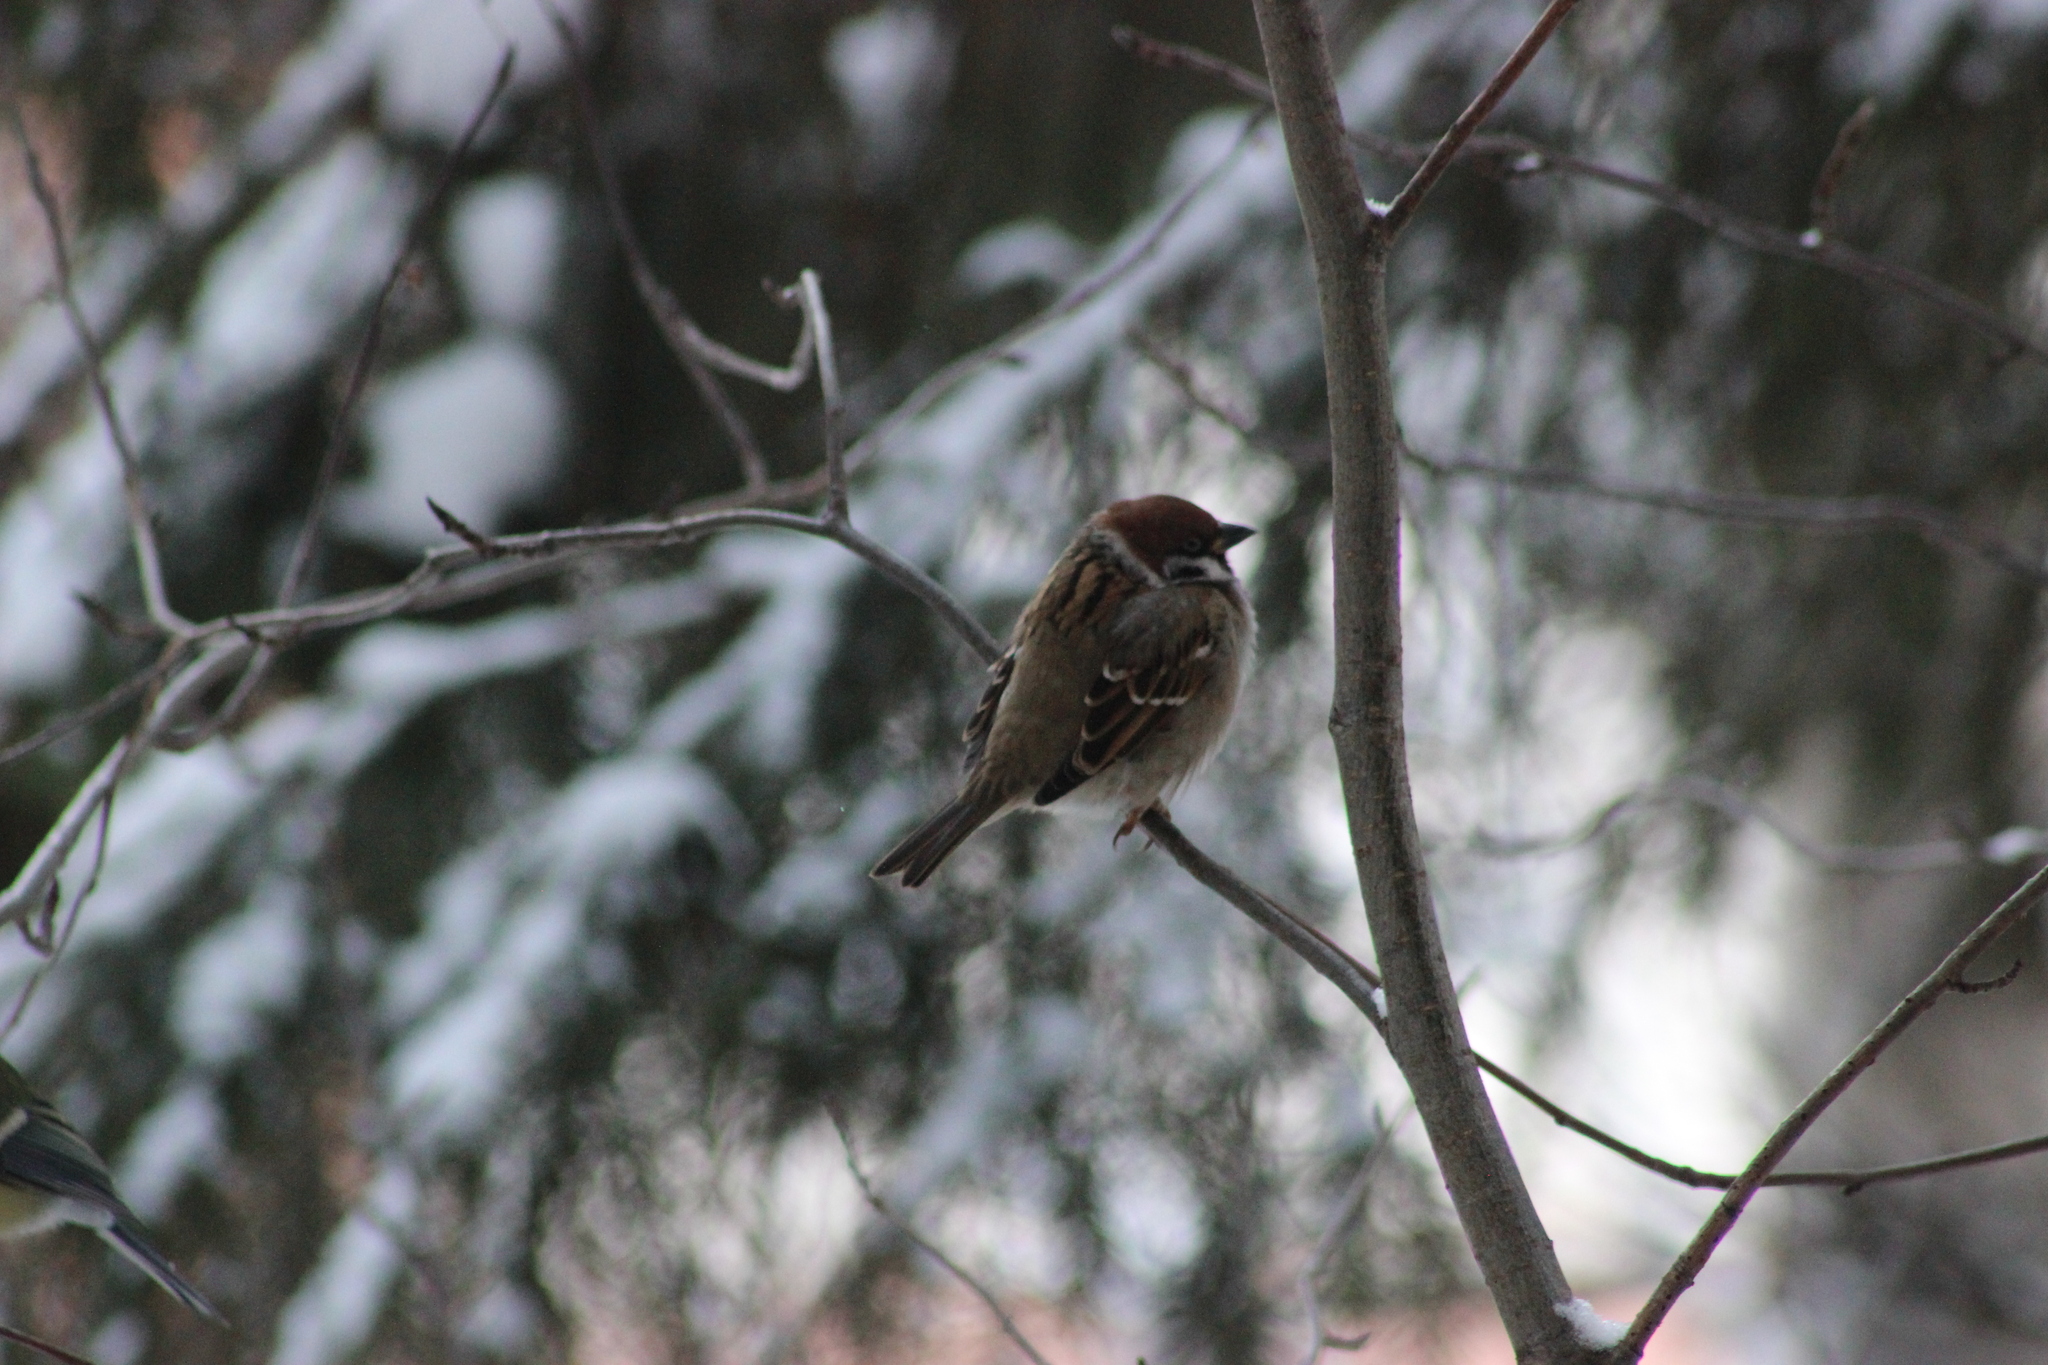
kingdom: Animalia
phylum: Chordata
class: Aves
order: Passeriformes
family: Passeridae
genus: Passer
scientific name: Passer montanus
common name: Eurasian tree sparrow
